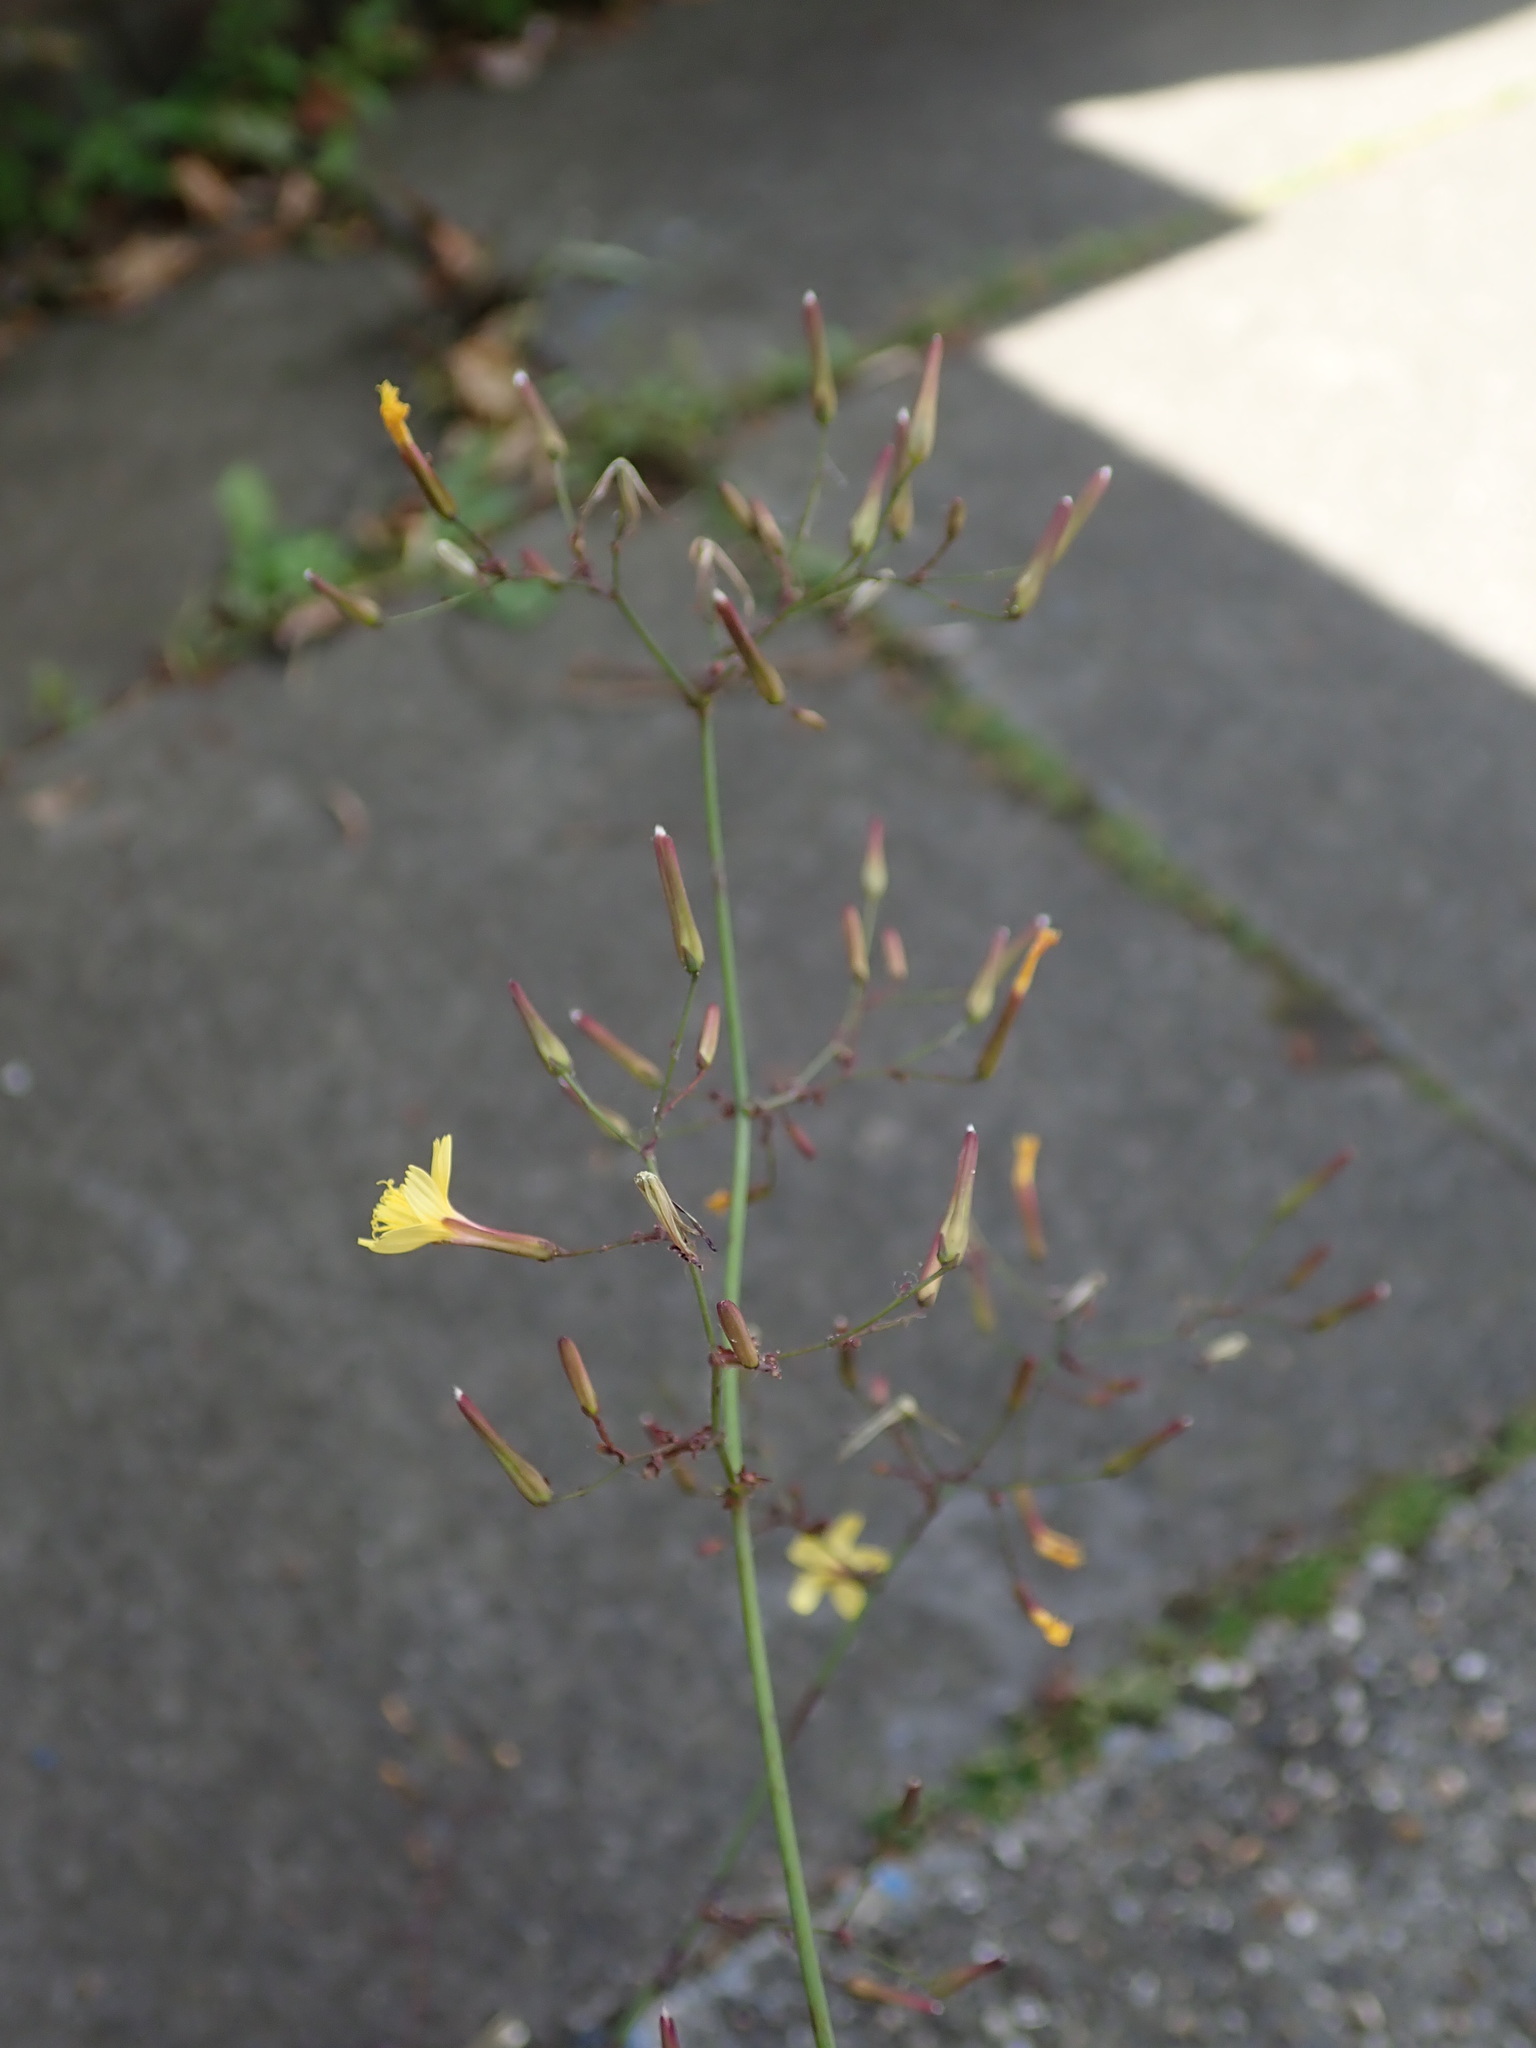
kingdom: Plantae
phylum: Tracheophyta
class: Magnoliopsida
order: Asterales
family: Asteraceae
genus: Mycelis
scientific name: Mycelis muralis
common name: Wall lettuce
